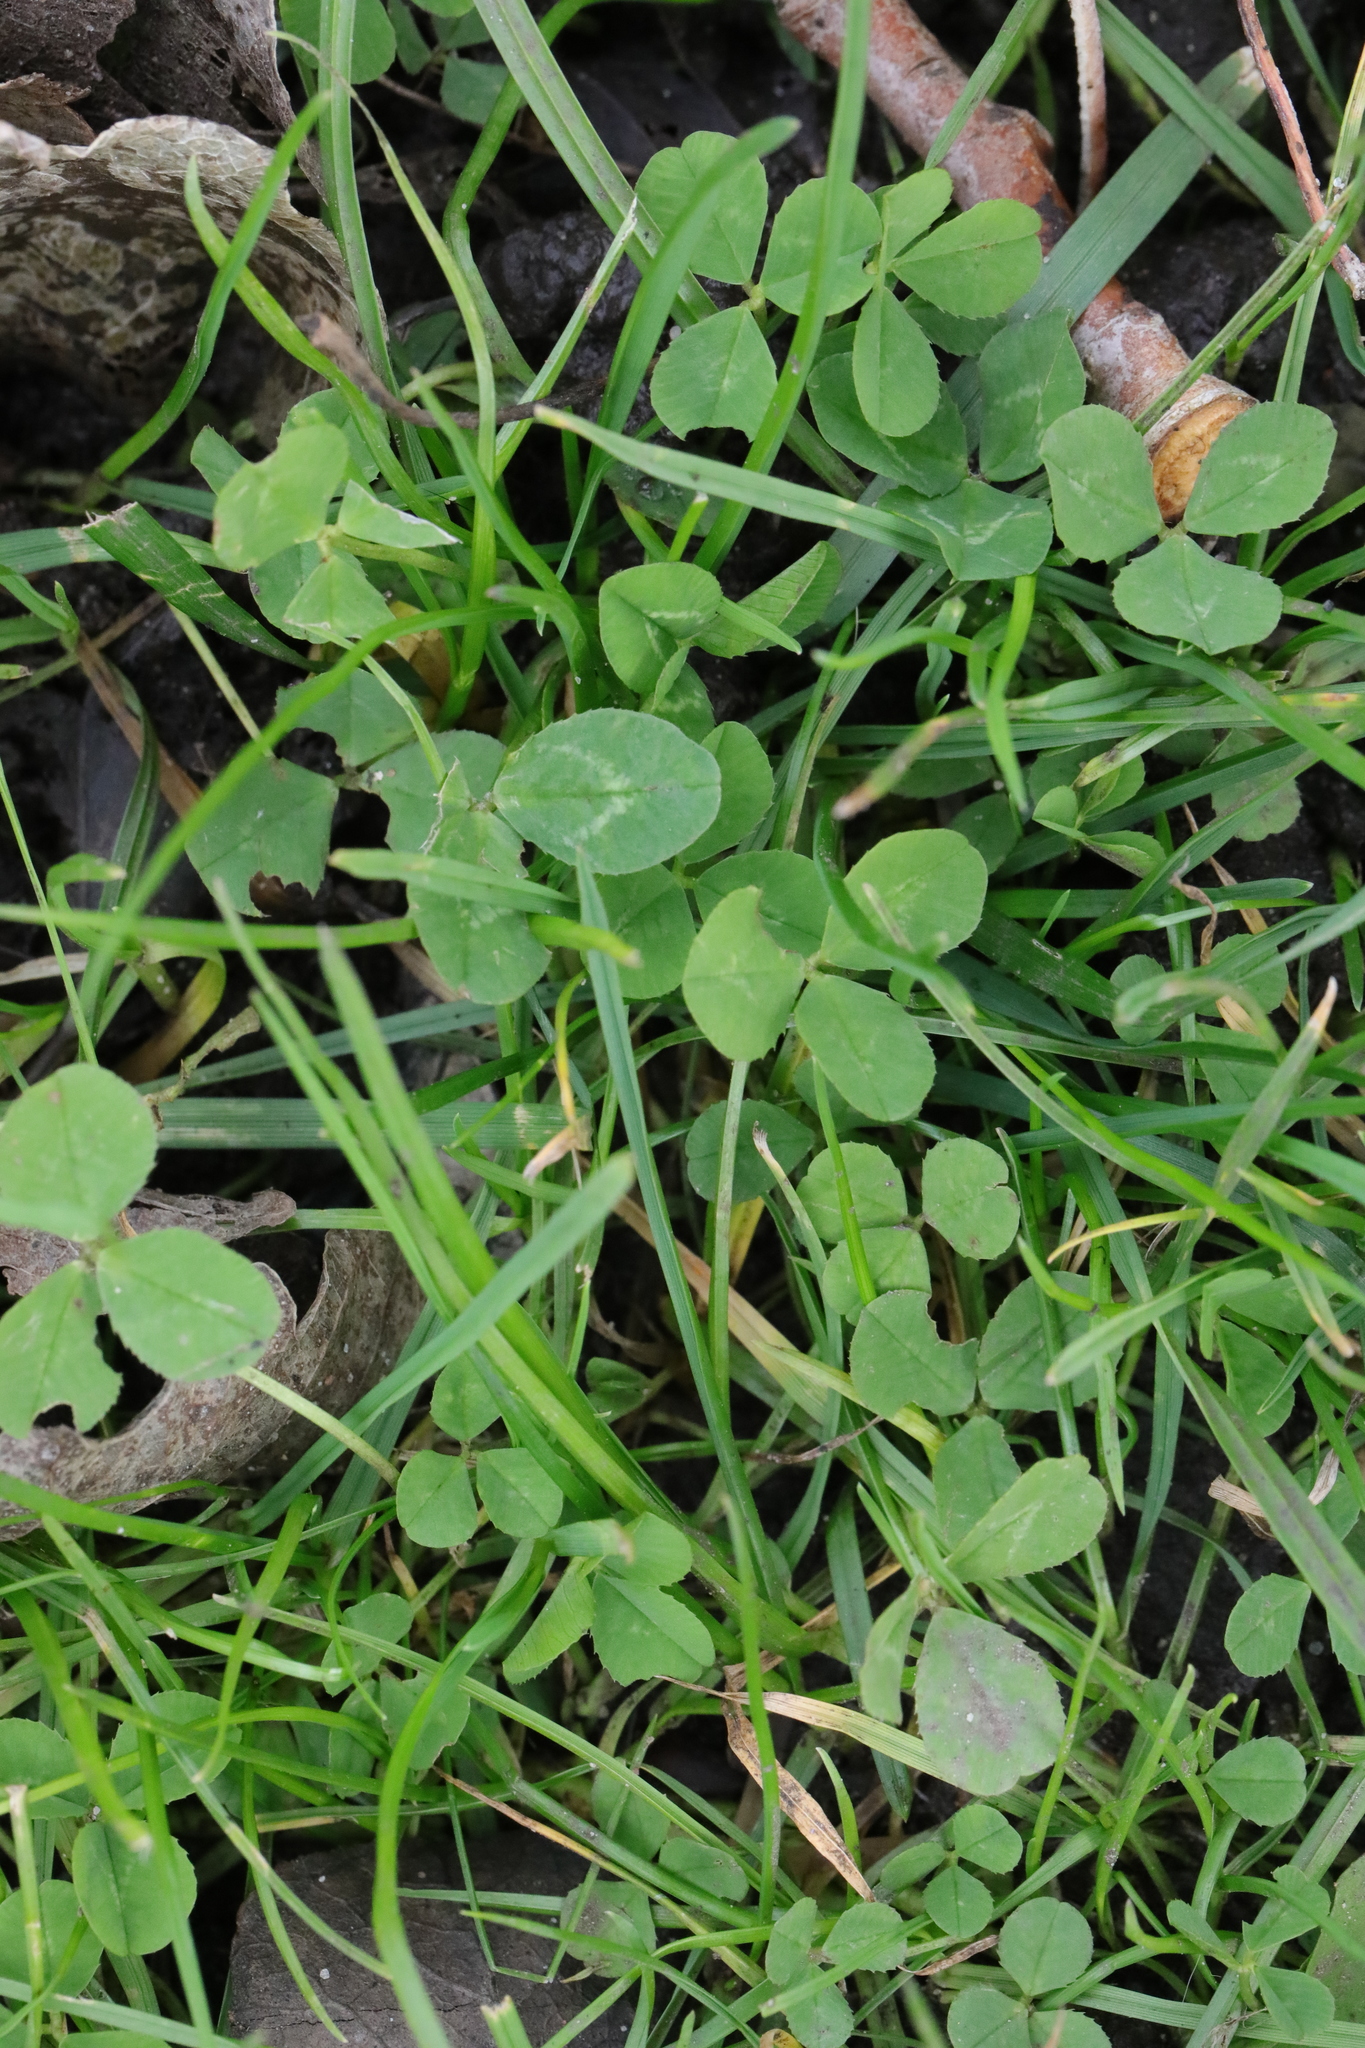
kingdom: Plantae
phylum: Tracheophyta
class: Magnoliopsida
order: Fabales
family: Fabaceae
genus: Trifolium
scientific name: Trifolium repens
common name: White clover
